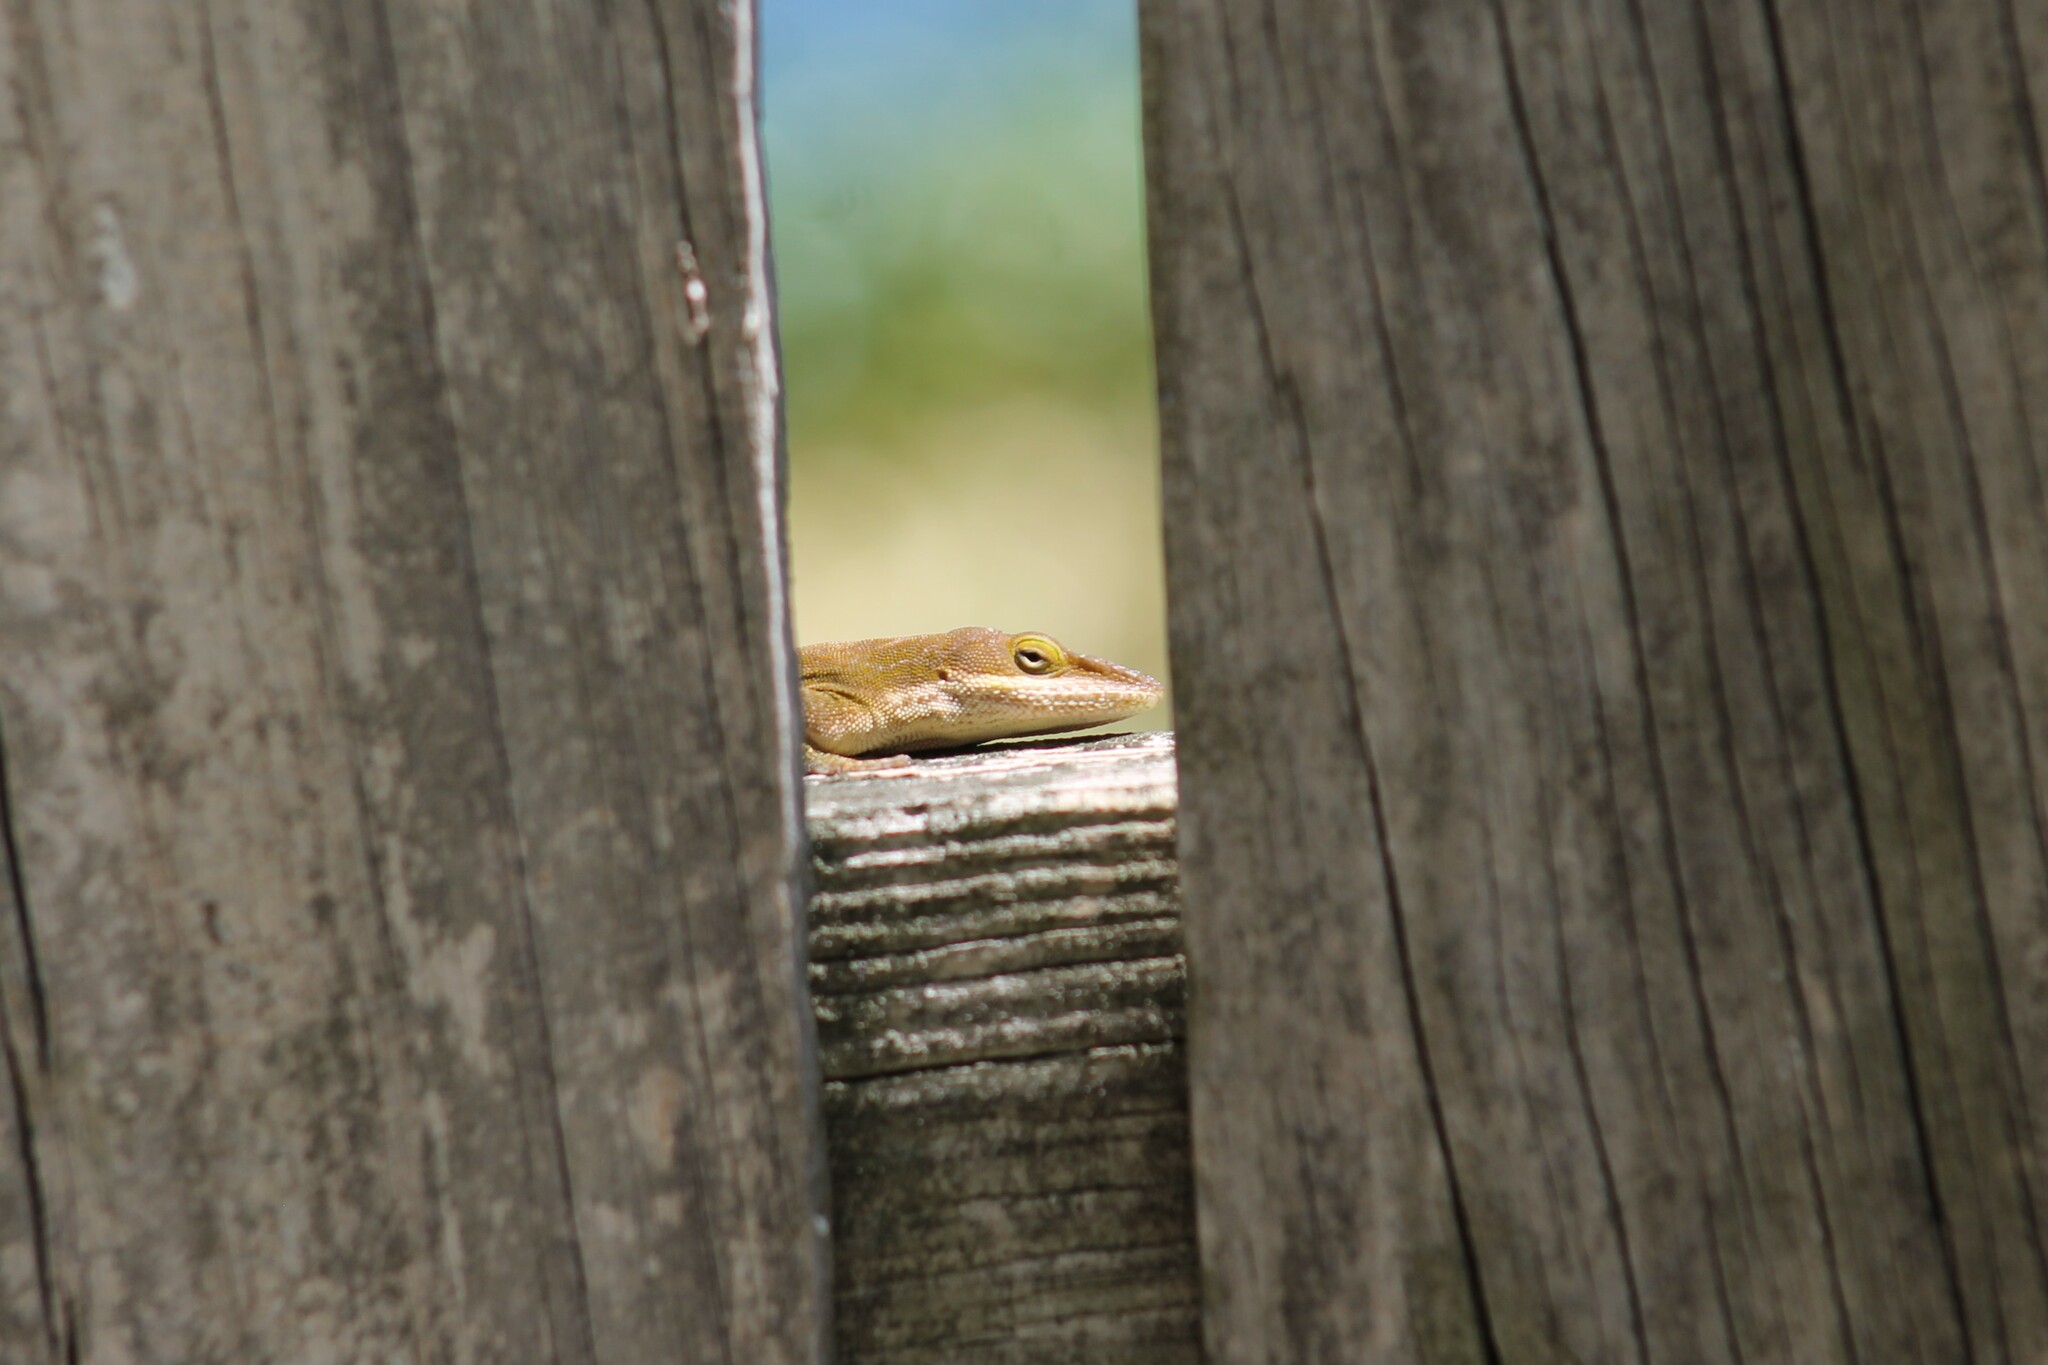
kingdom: Animalia
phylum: Chordata
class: Squamata
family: Dactyloidae
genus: Anolis
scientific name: Anolis carolinensis
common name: Green anole
